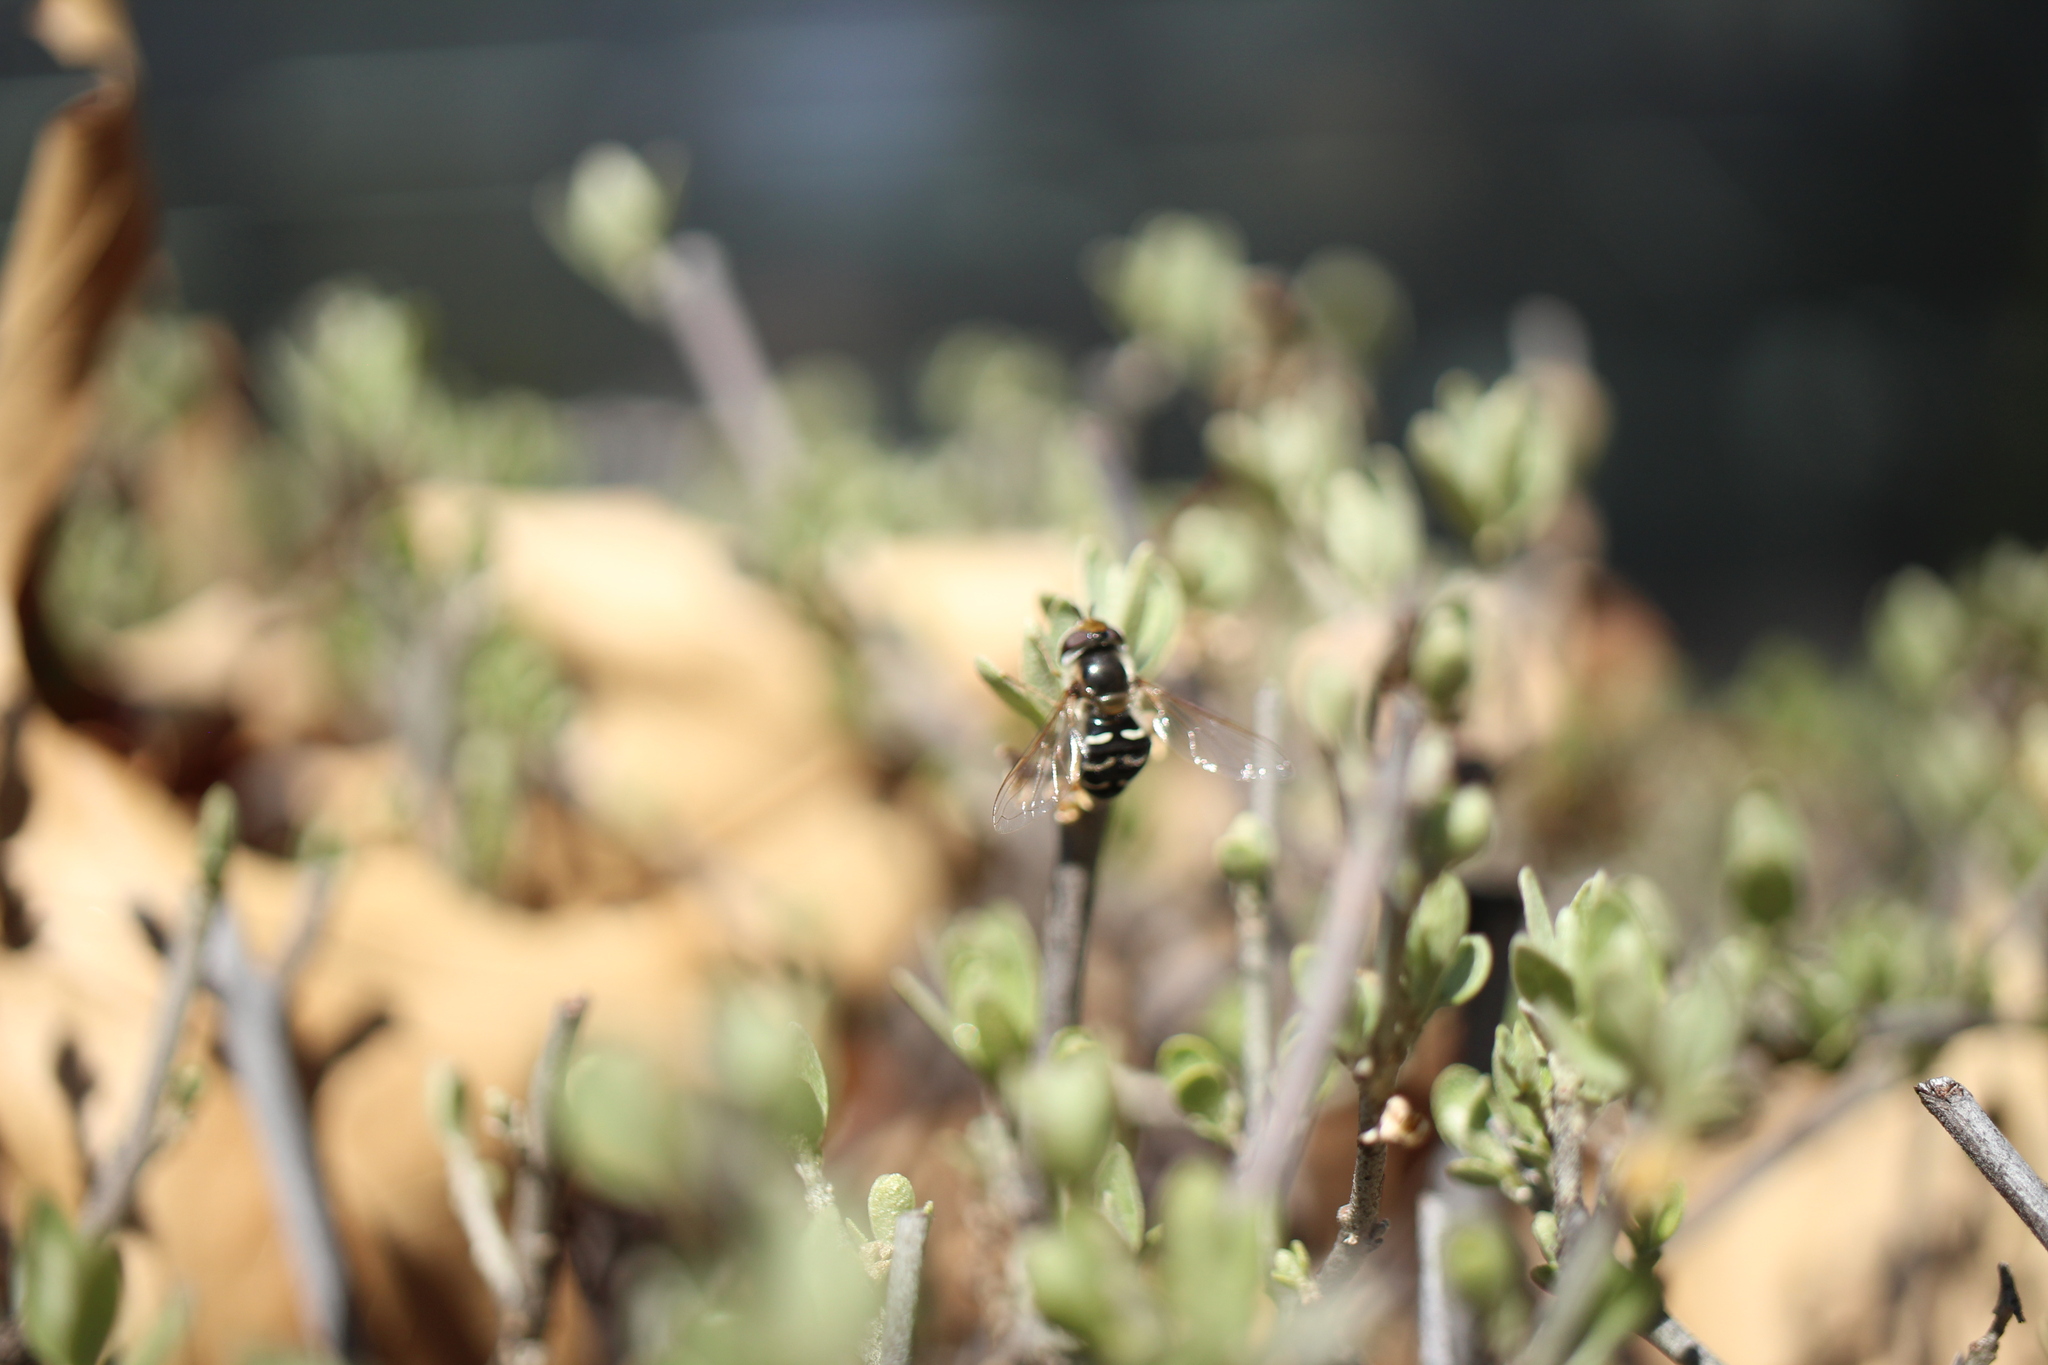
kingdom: Animalia
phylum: Arthropoda
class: Insecta
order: Diptera
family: Syrphidae
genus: Scaeva
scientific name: Scaeva affinis
